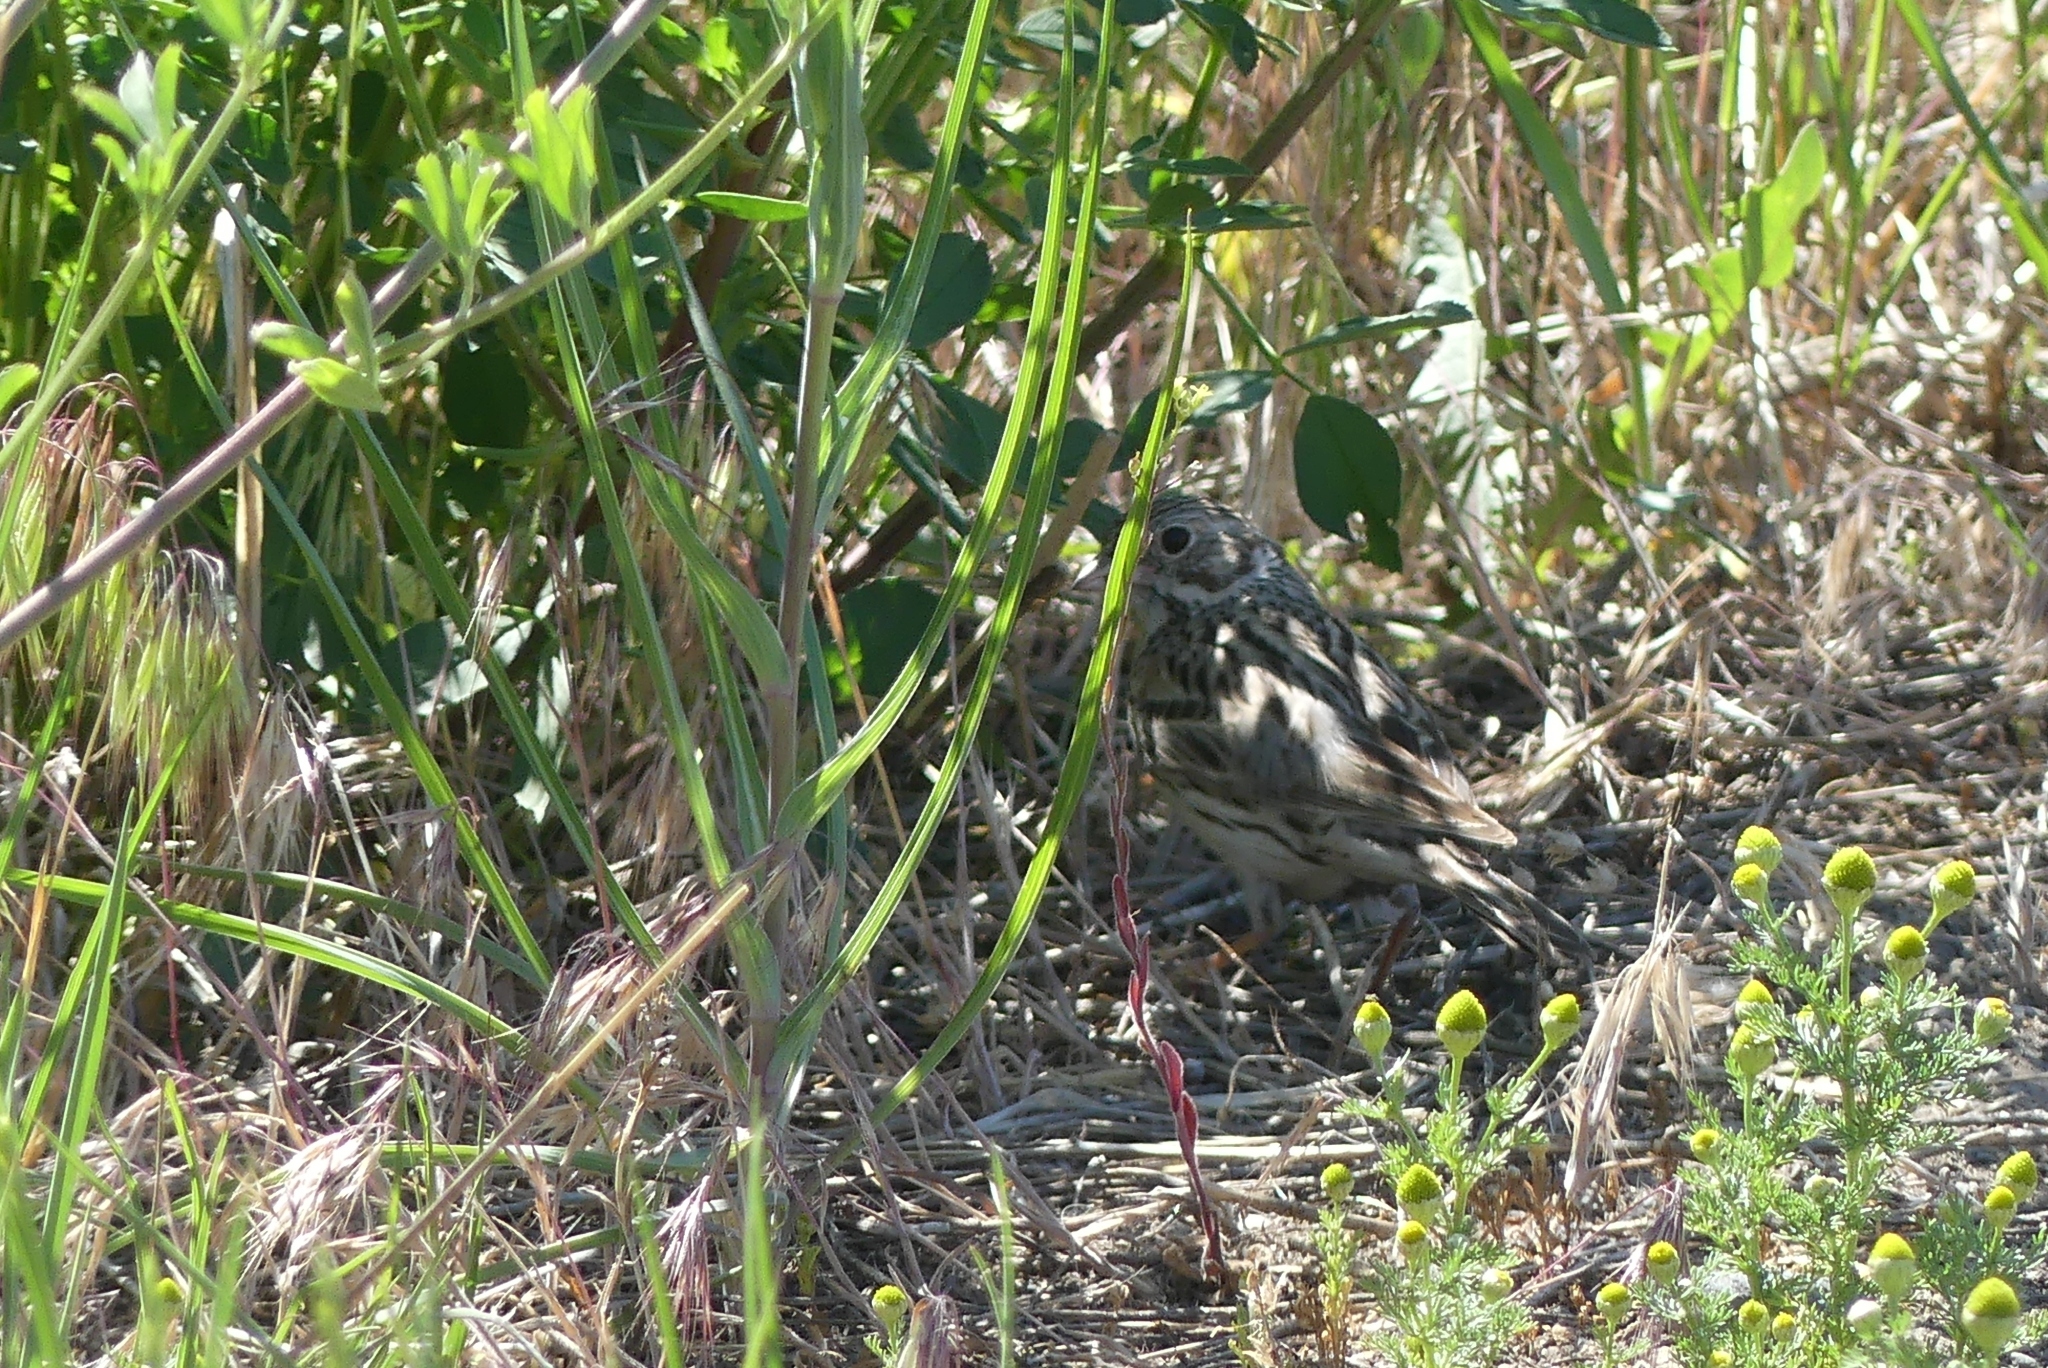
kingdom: Animalia
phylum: Chordata
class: Aves
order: Passeriformes
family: Passerellidae
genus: Pooecetes
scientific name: Pooecetes gramineus
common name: Vesper sparrow
